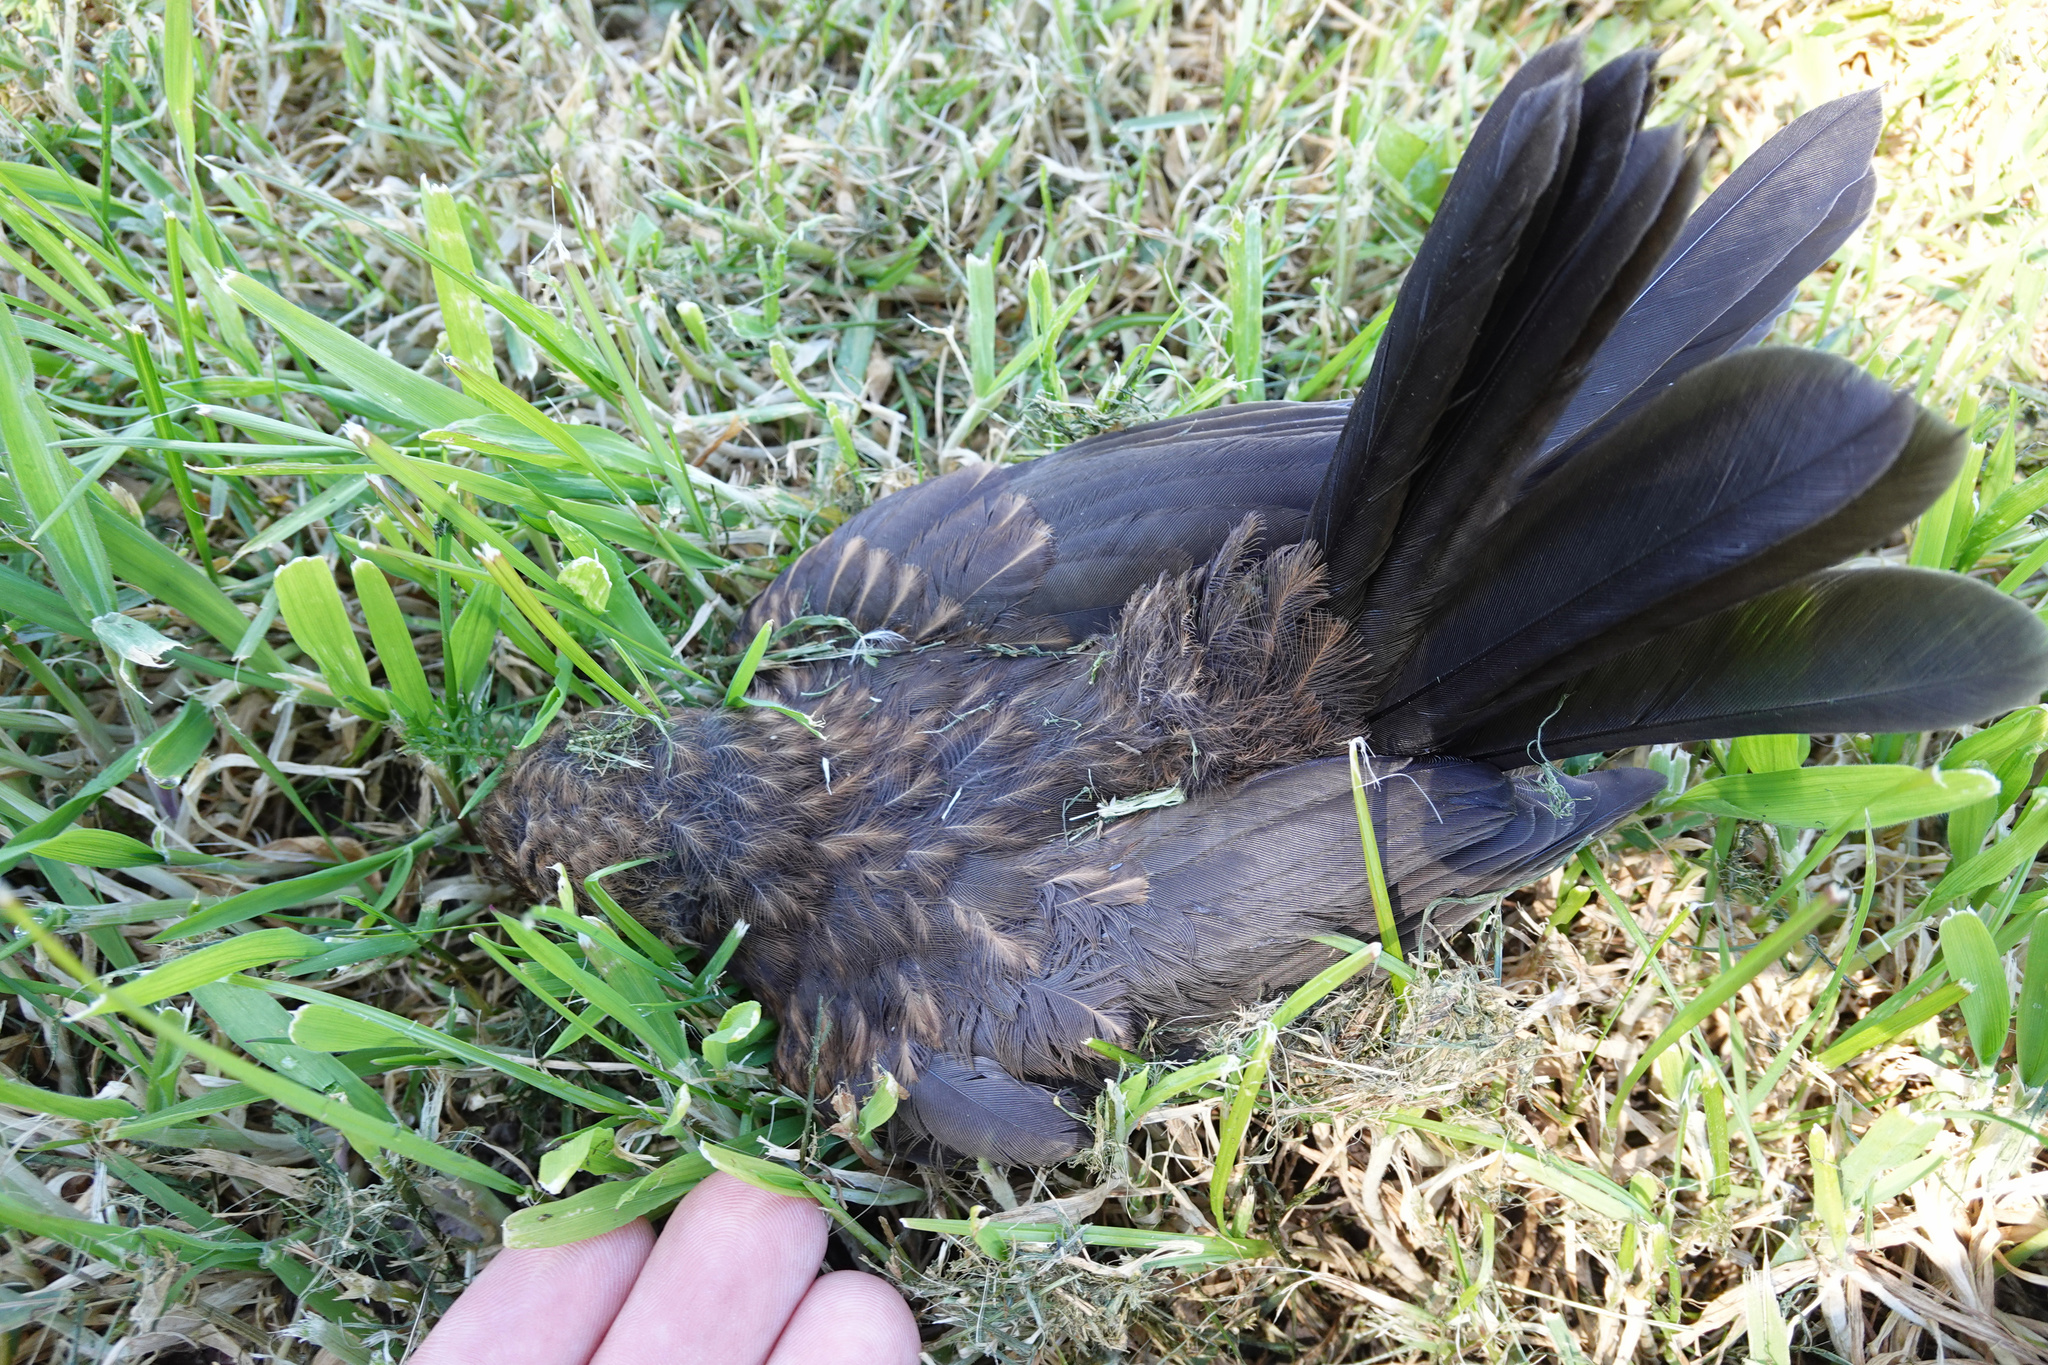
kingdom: Animalia
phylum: Chordata
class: Aves
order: Passeriformes
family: Turdidae
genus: Turdus
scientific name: Turdus merula
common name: Common blackbird
